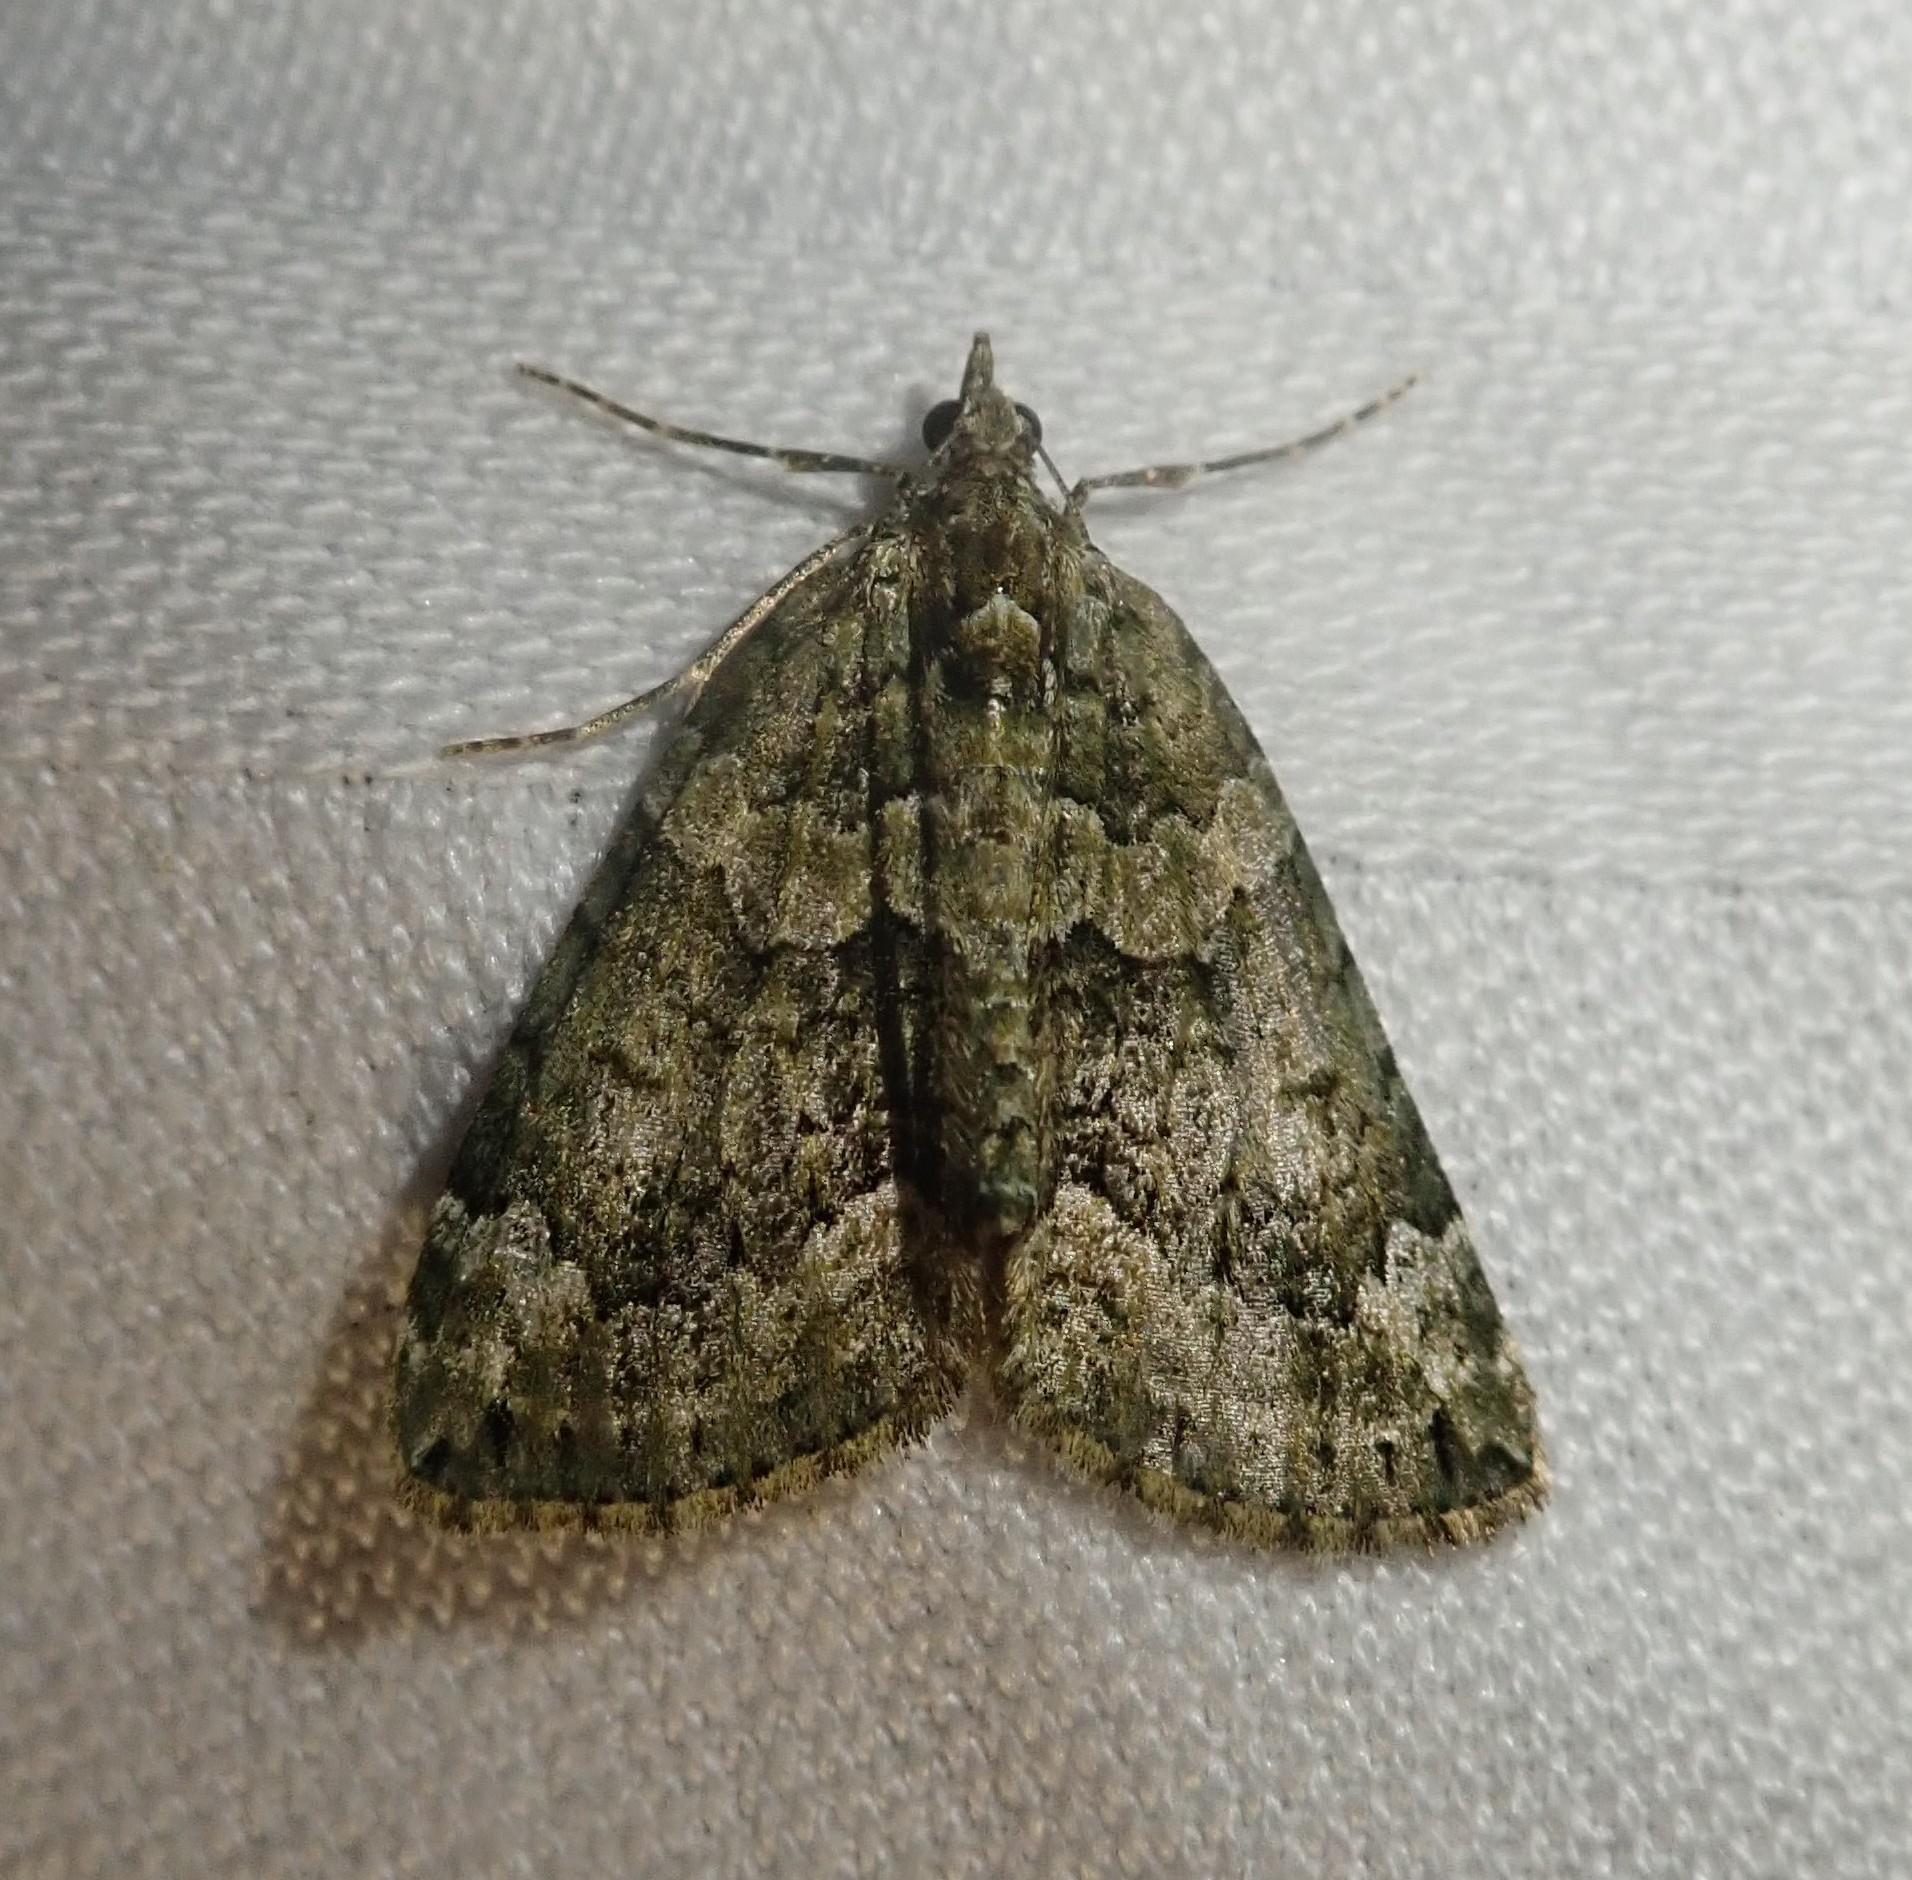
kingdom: Animalia
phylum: Arthropoda
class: Insecta
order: Lepidoptera
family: Geometridae
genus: Chloroclysta
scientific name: Chloroclysta siterata
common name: Red-green carpet
